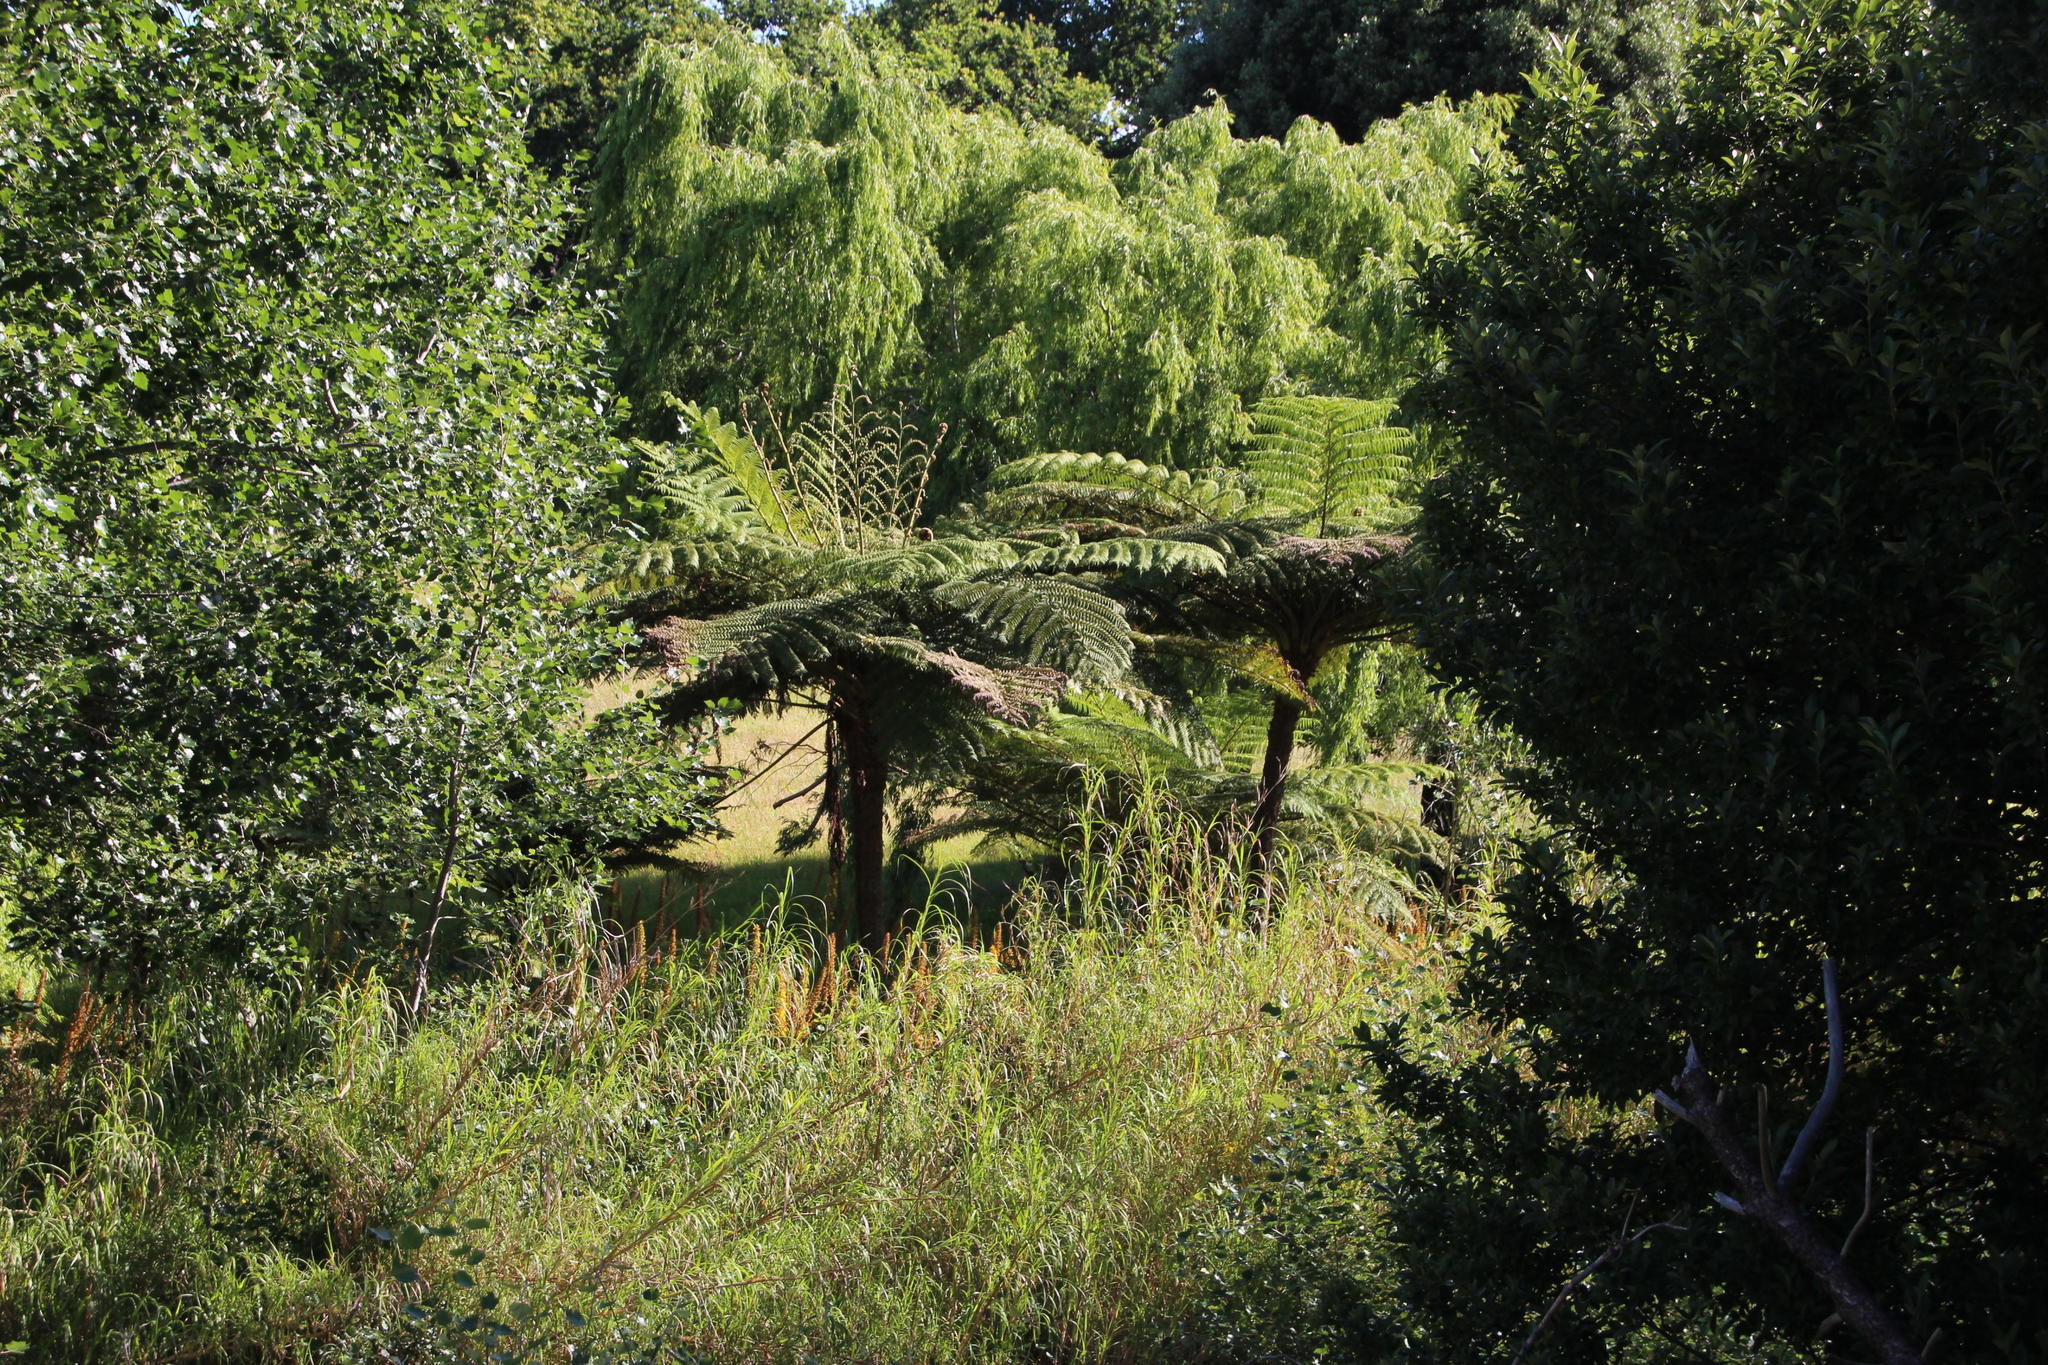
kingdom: Plantae
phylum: Tracheophyta
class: Polypodiopsida
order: Cyatheales
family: Cyatheaceae
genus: Sphaeropteris
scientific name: Sphaeropteris cooperi
